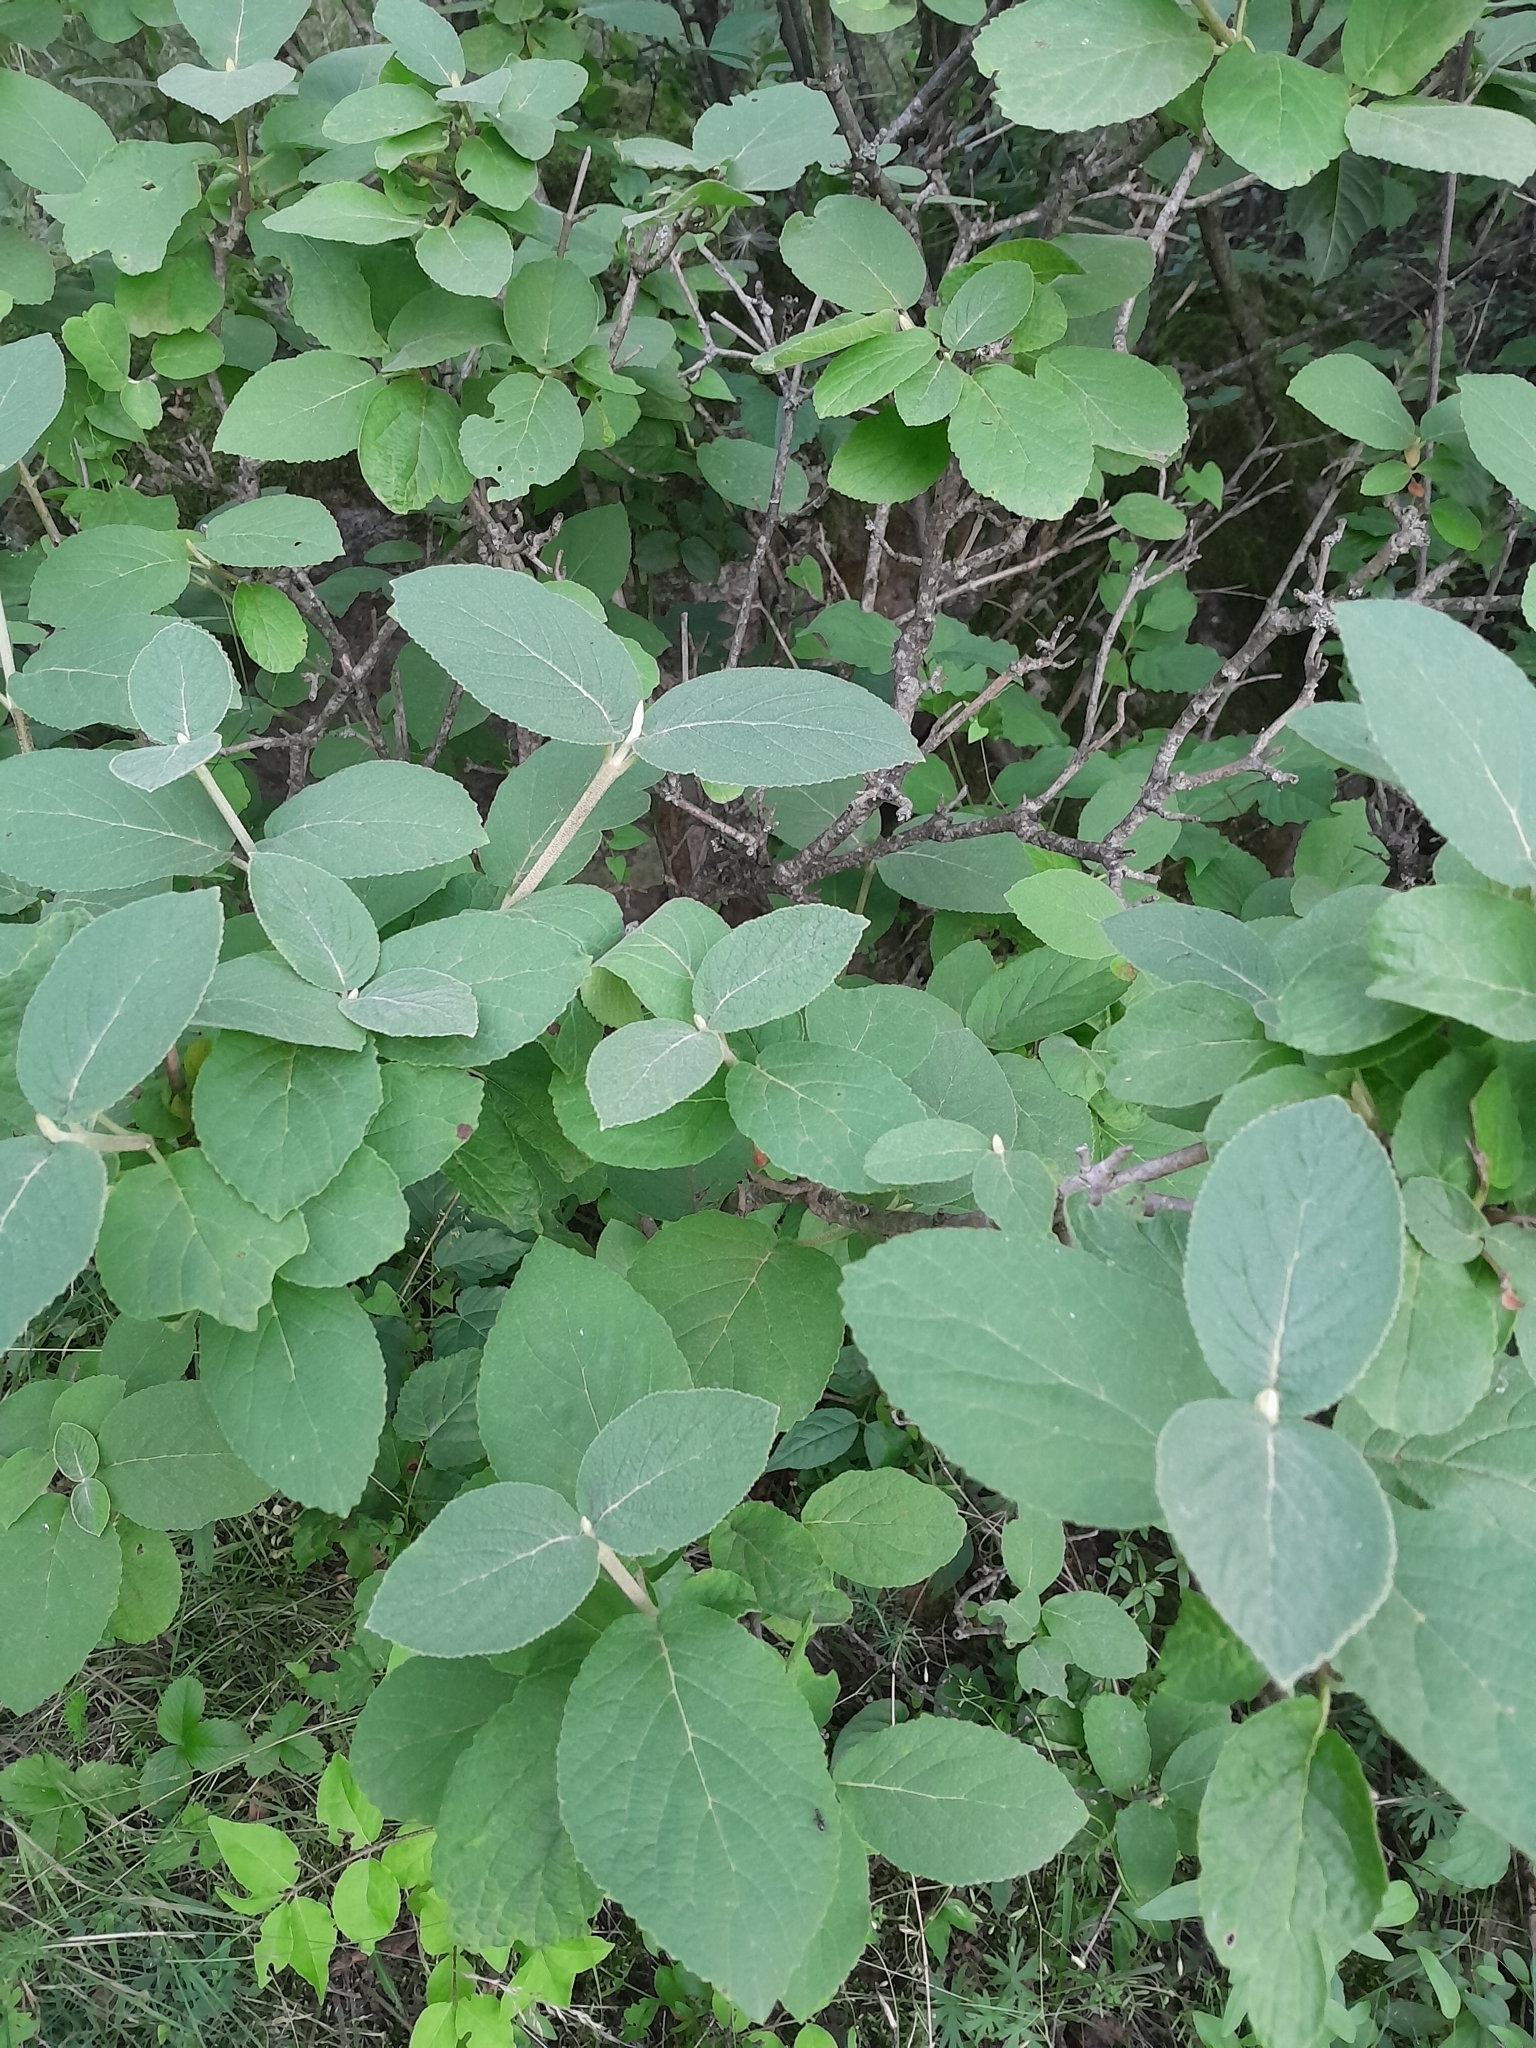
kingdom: Plantae
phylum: Tracheophyta
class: Magnoliopsida
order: Dipsacales
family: Viburnaceae
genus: Viburnum
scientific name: Viburnum lantana
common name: Wayfaring tree
